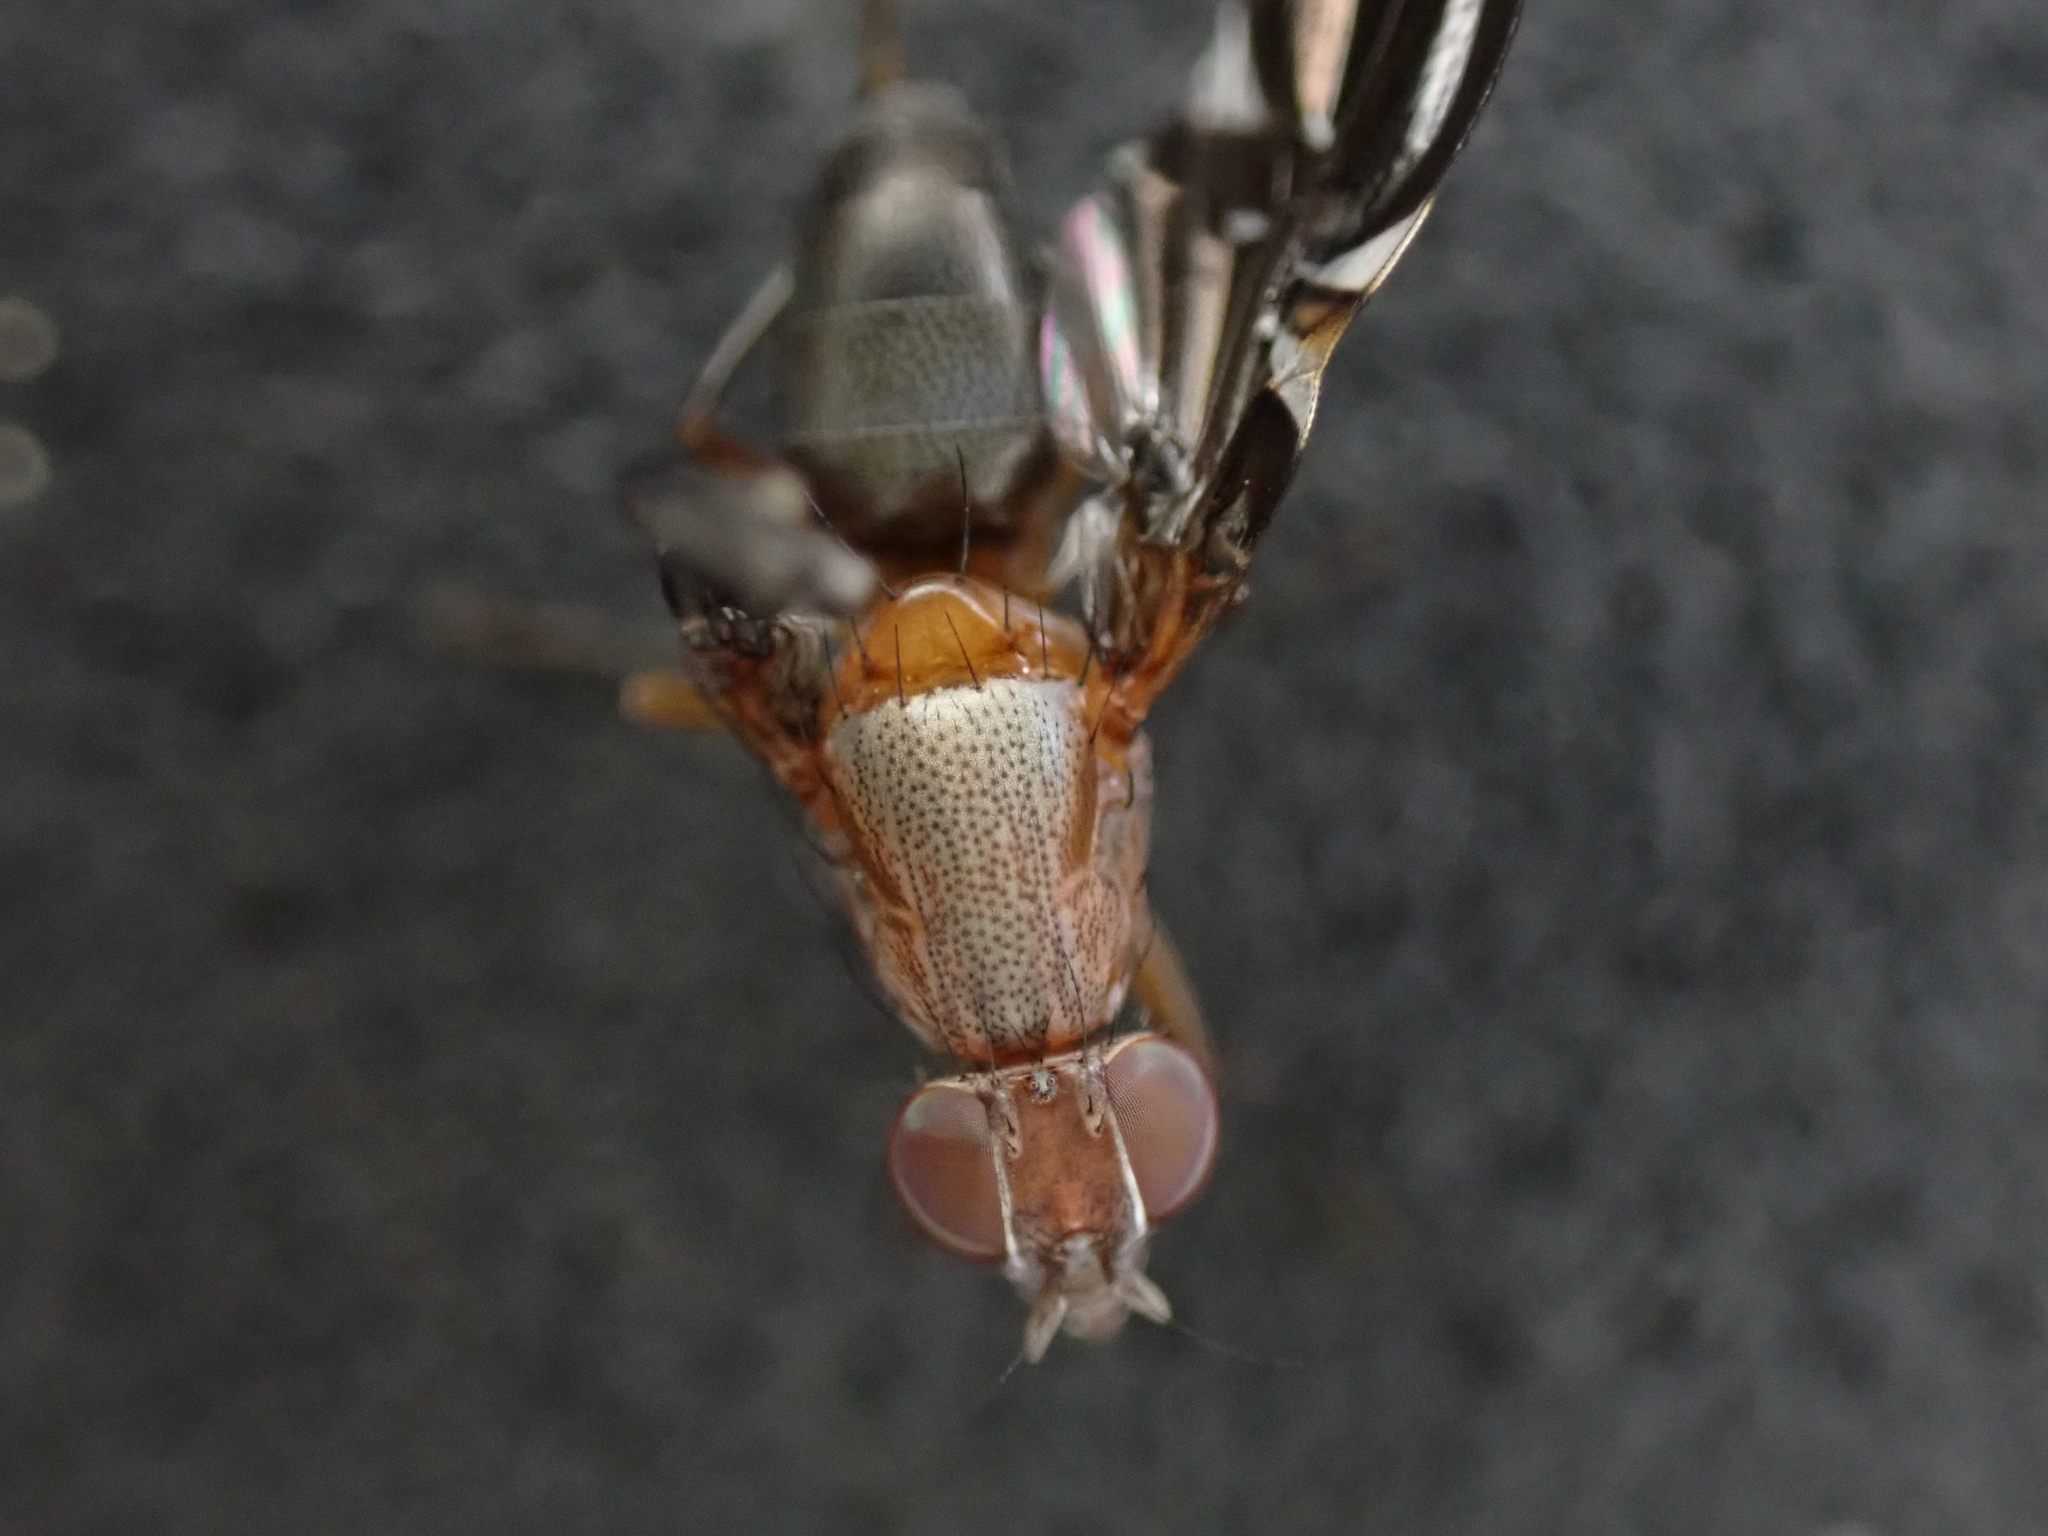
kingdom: Animalia
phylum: Arthropoda
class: Insecta
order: Diptera
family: Ulidiidae
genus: Delphinia
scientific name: Delphinia picta
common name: Common picture-winged fly
